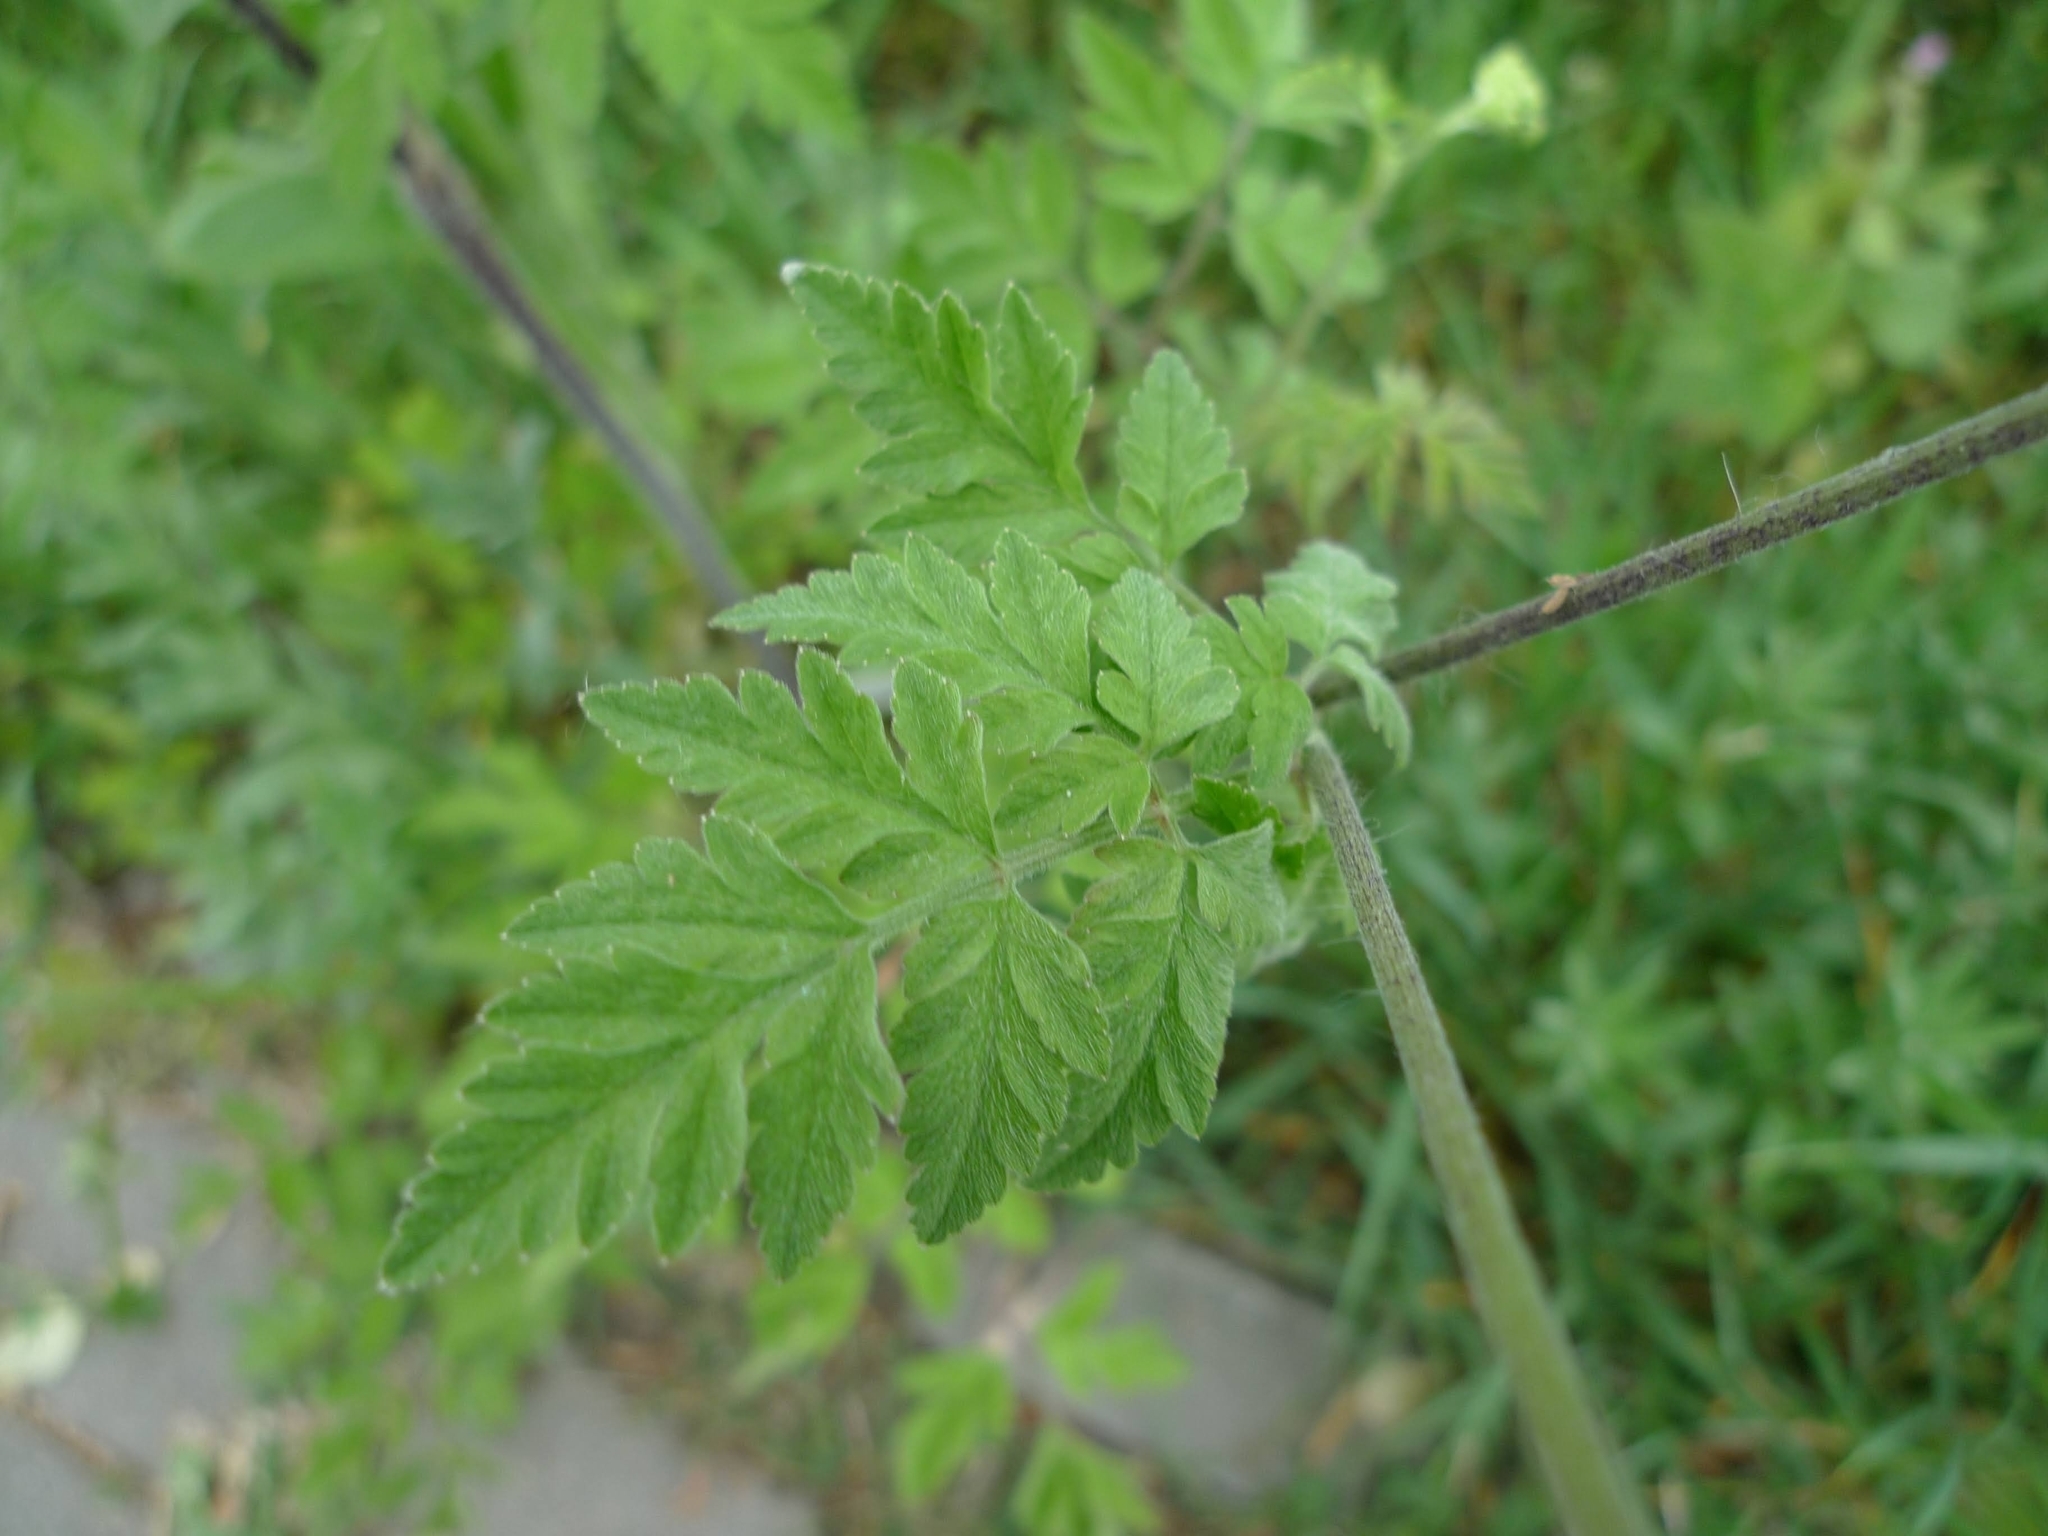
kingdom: Plantae
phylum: Tracheophyta
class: Magnoliopsida
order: Apiales
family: Apiaceae
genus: Chaerophyllum
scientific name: Chaerophyllum temulum
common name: Rough chervil
